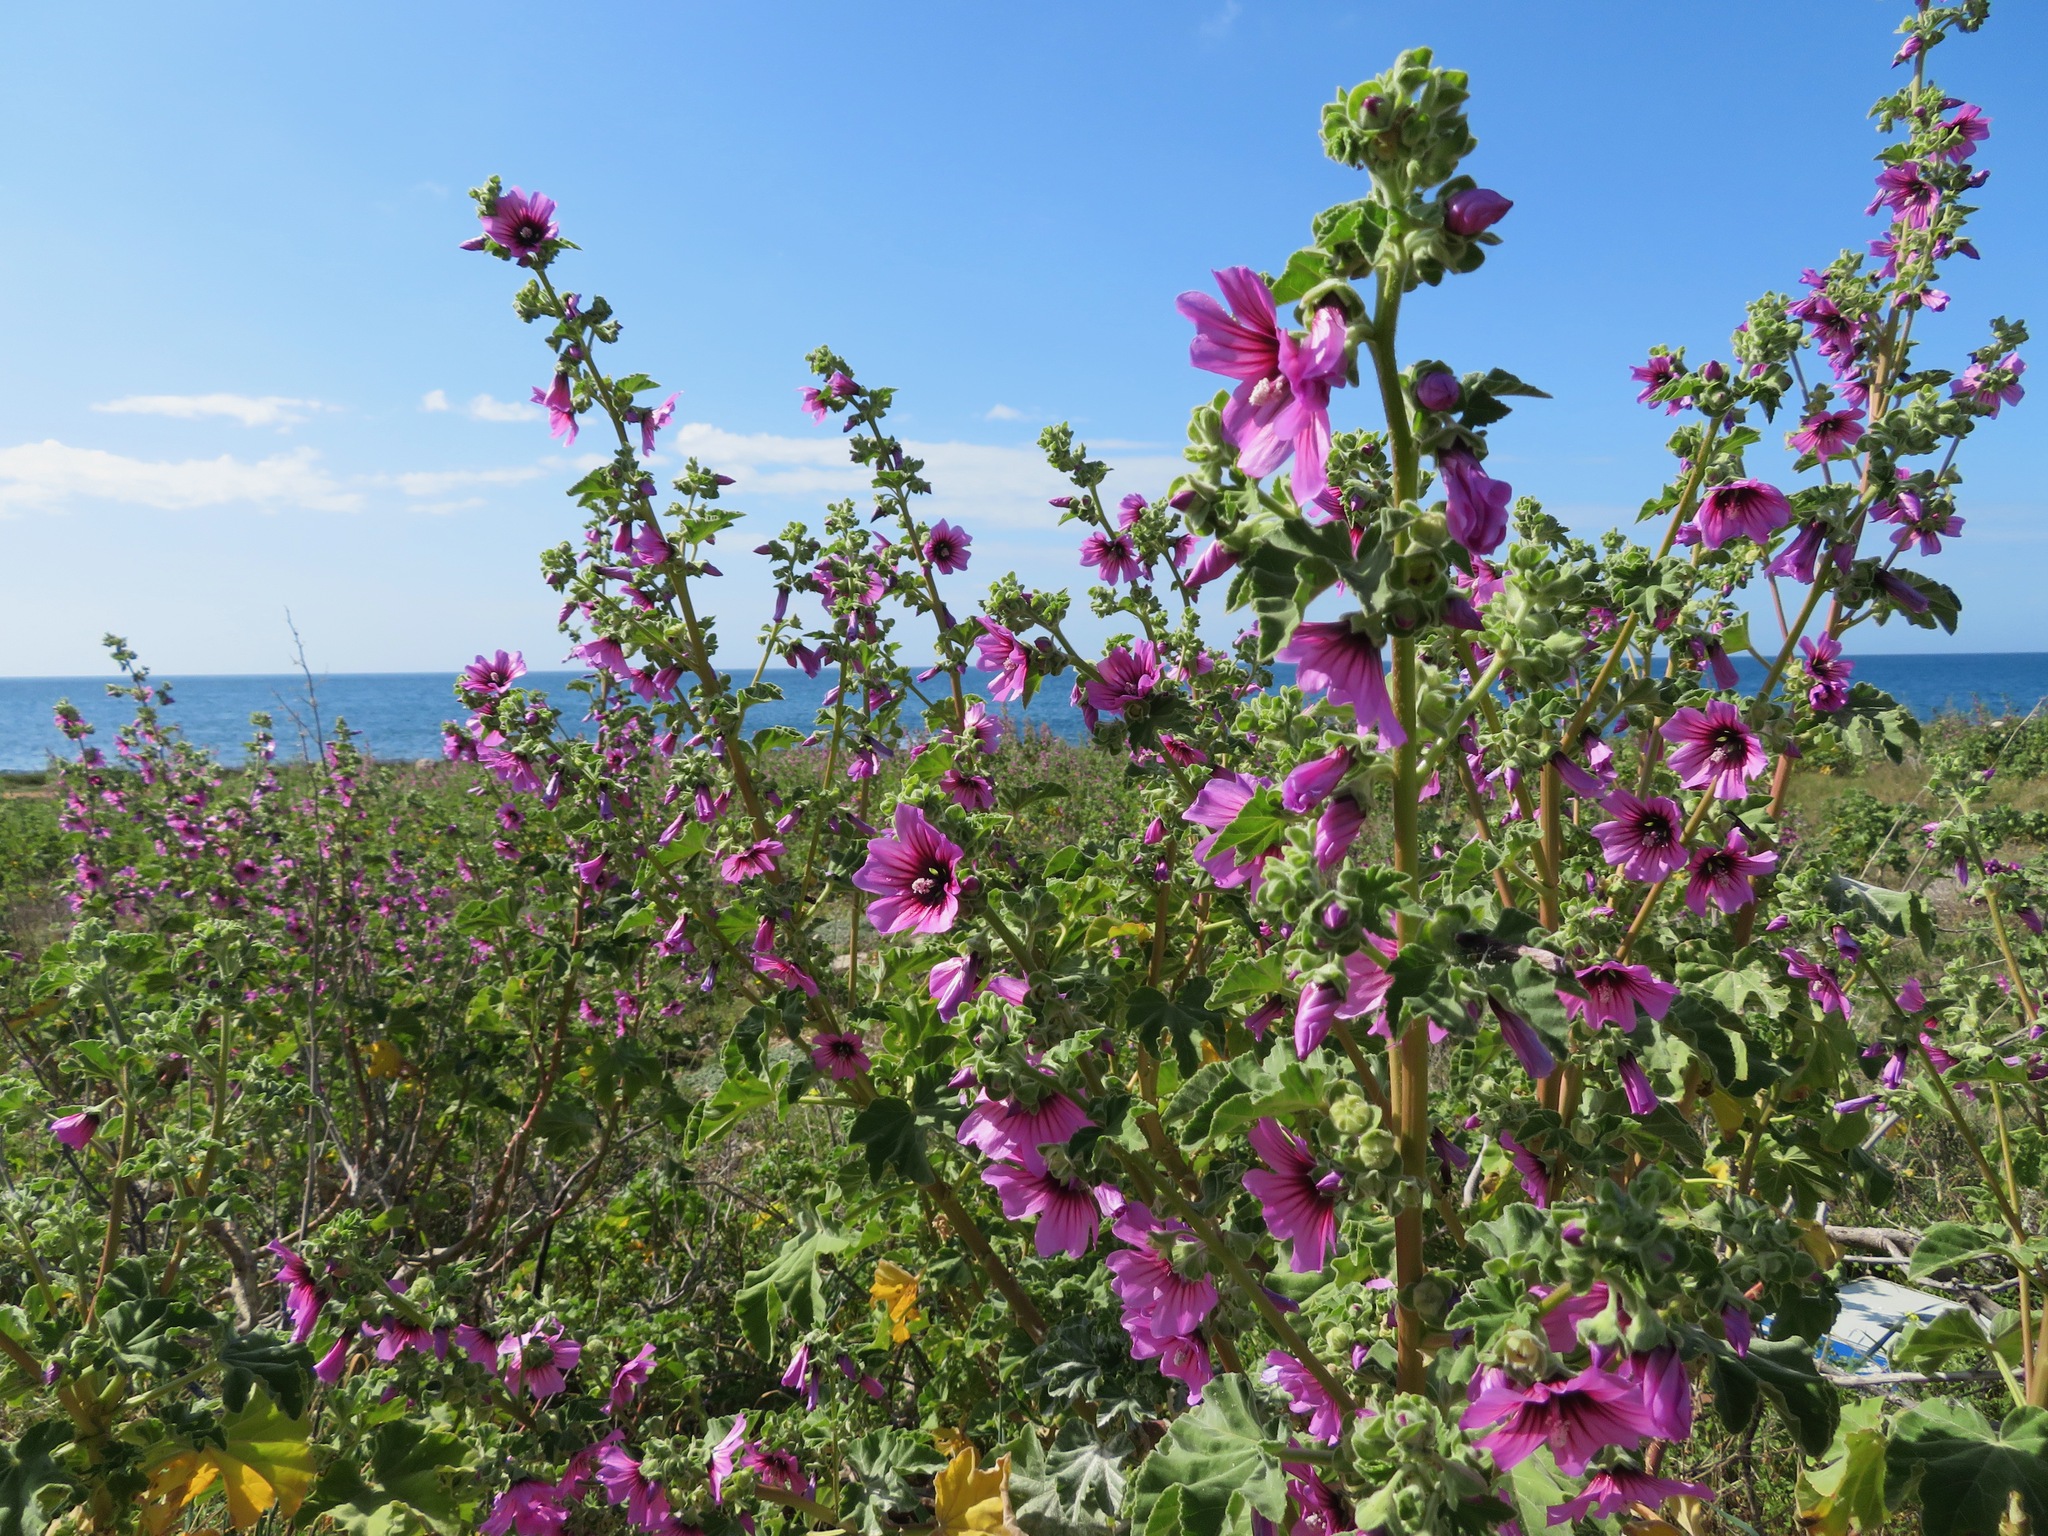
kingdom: Plantae
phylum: Tracheophyta
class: Magnoliopsida
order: Malvales
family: Malvaceae
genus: Malva
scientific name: Malva arborea
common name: Tree mallow
